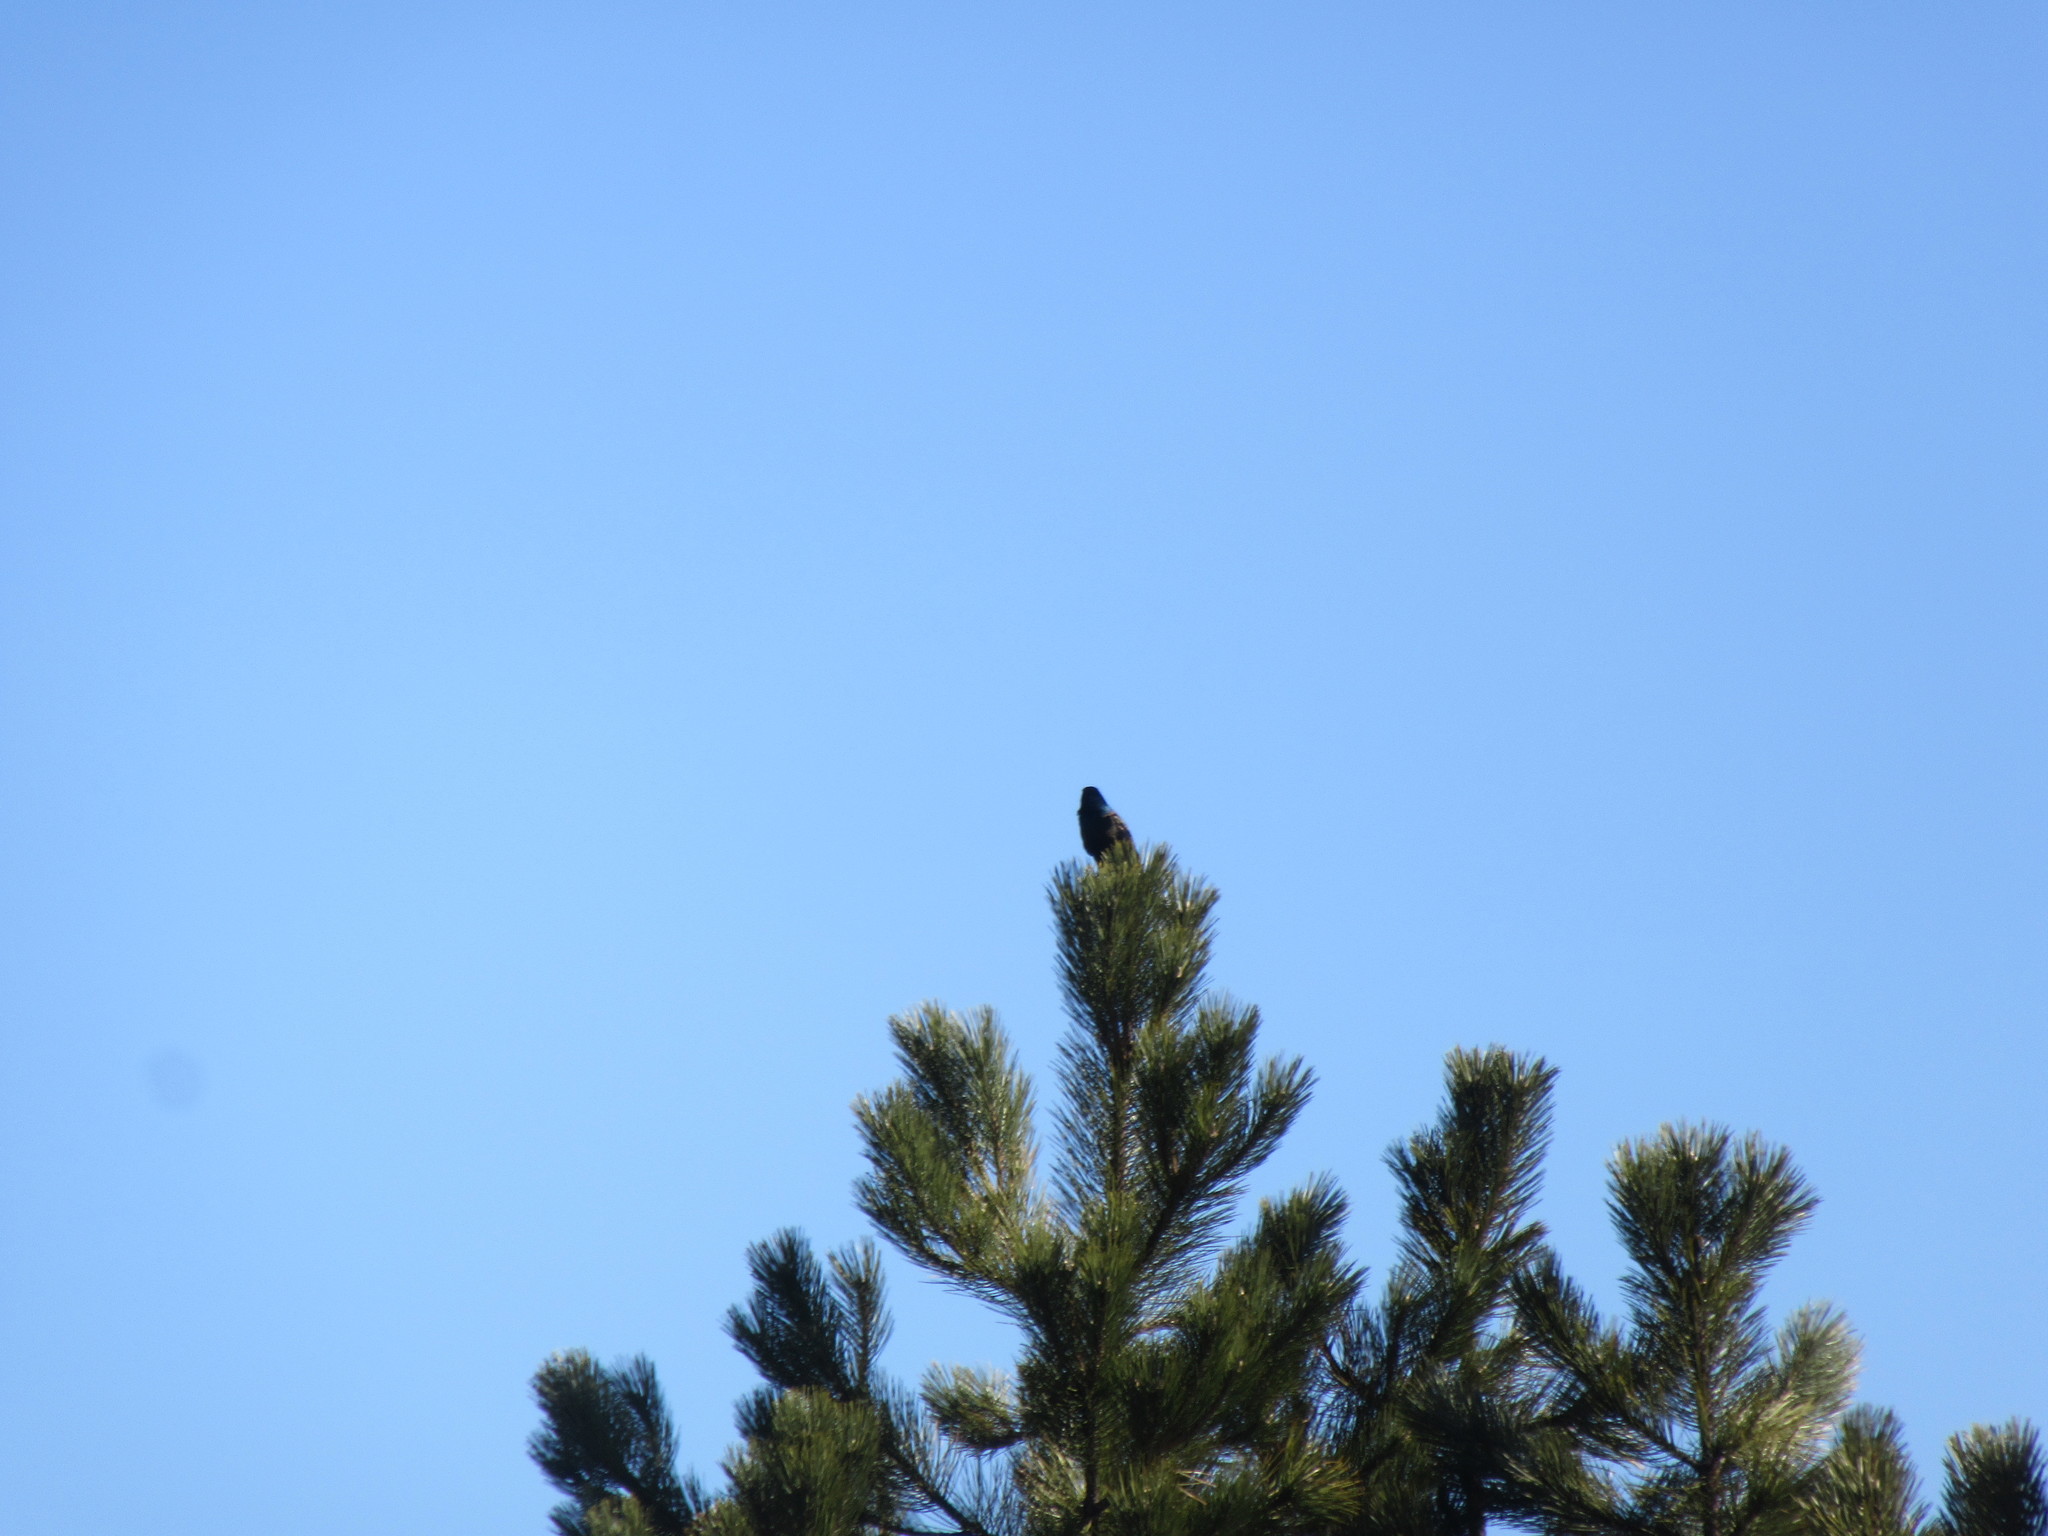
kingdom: Animalia
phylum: Chordata
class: Aves
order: Passeriformes
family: Icteridae
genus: Quiscalus
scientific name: Quiscalus quiscula
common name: Common grackle
